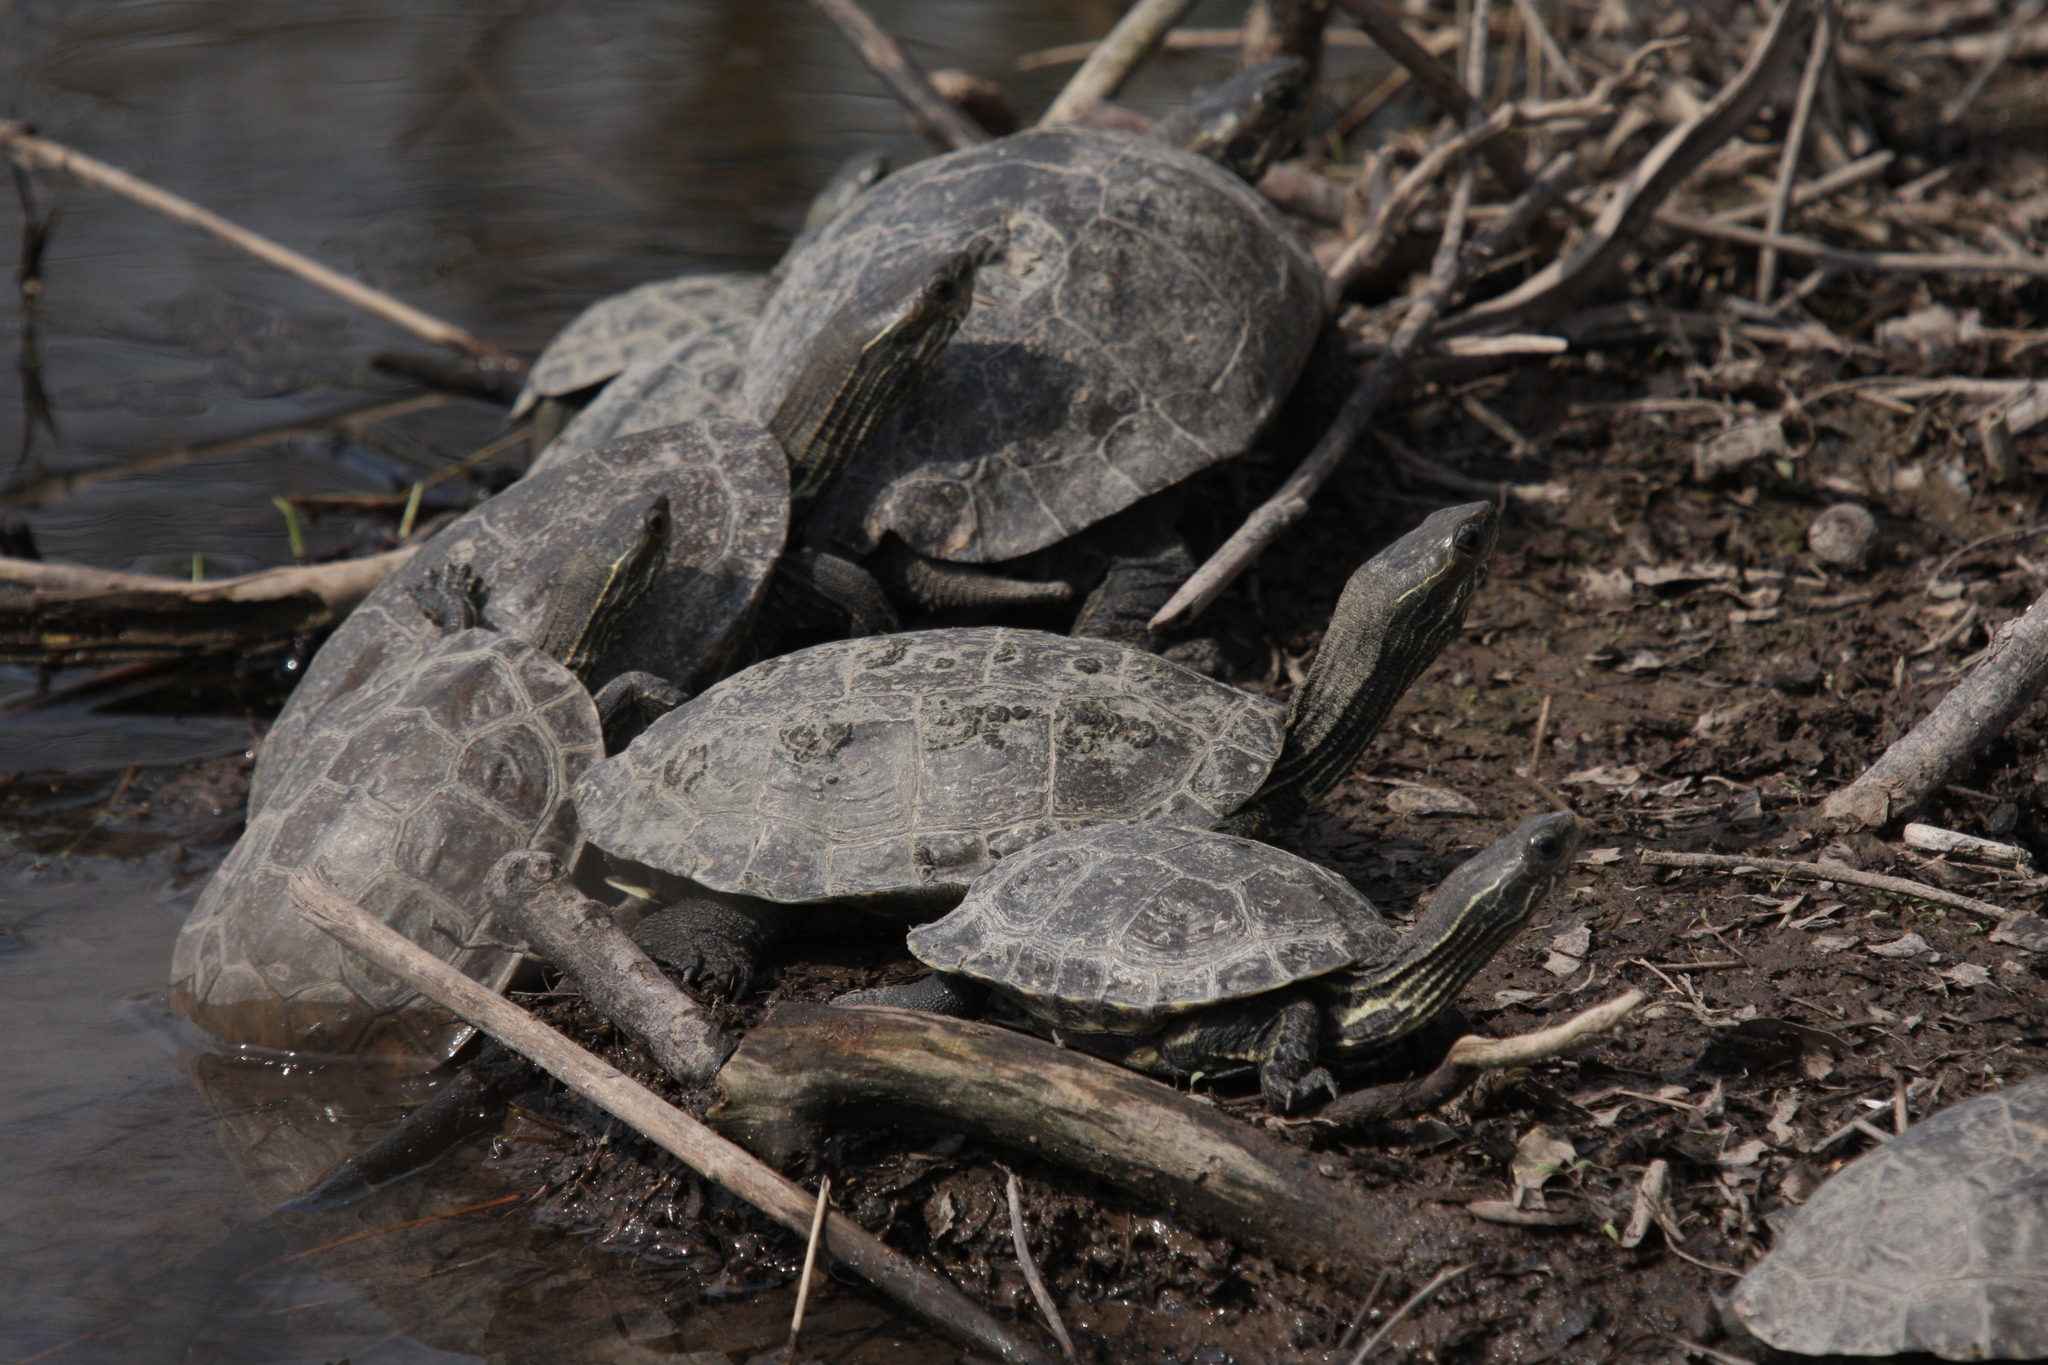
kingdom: Animalia
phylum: Chordata
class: Testudines
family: Geoemydidae
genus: Mauremys
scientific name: Mauremys rivulata
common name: Western caspian turtle
